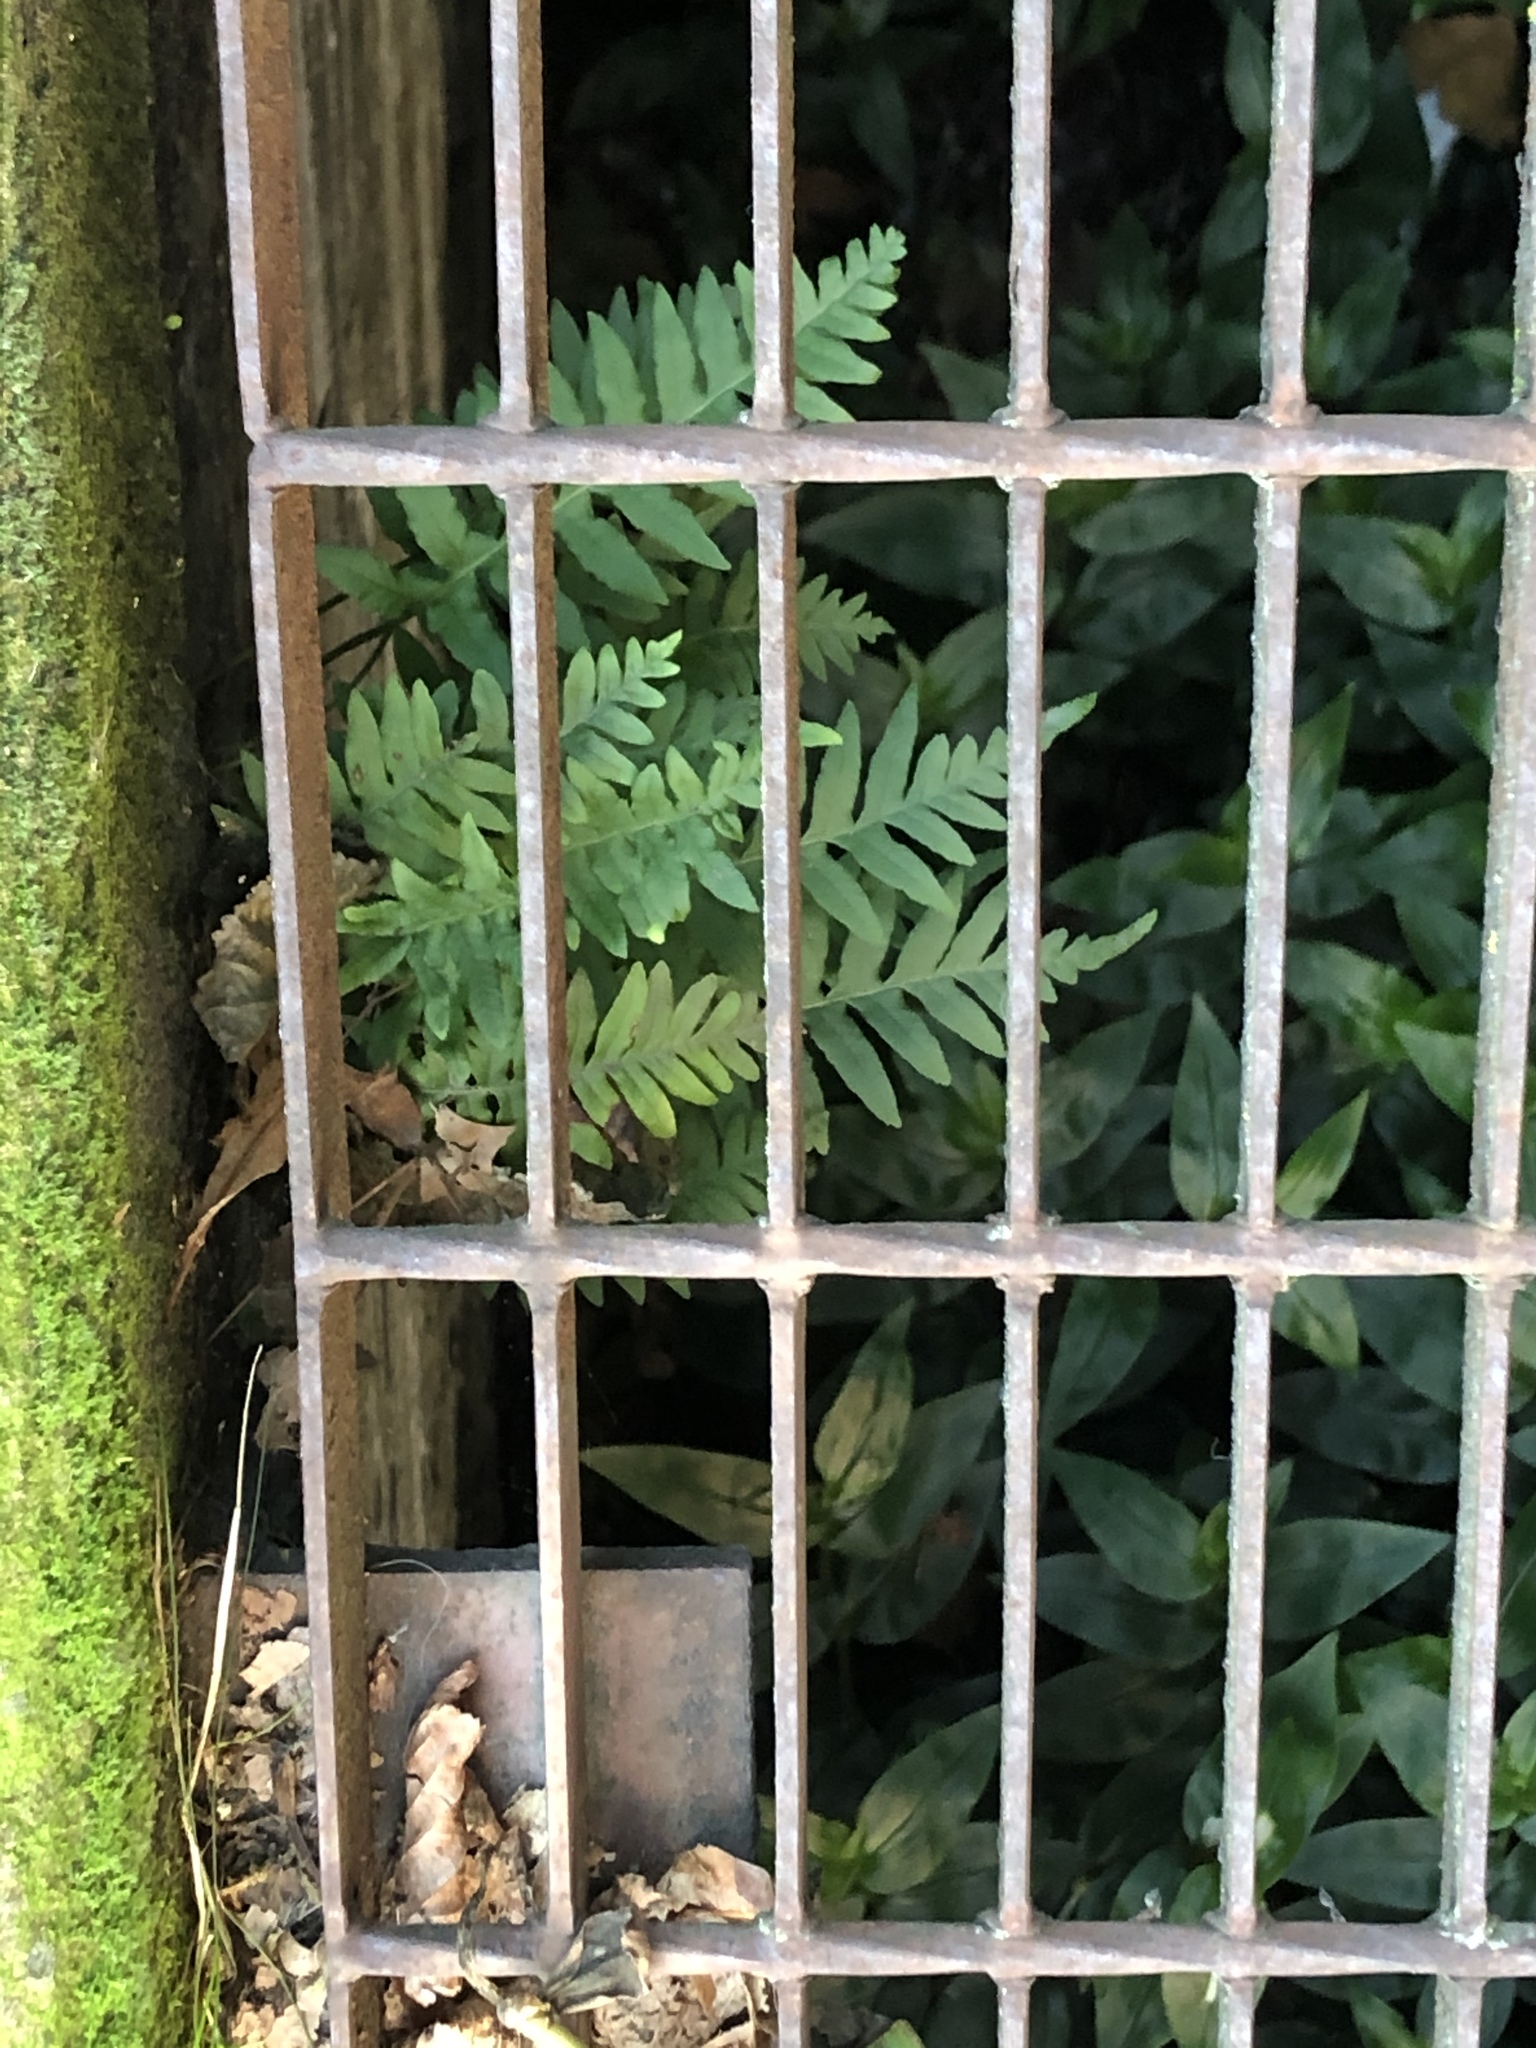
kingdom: Plantae
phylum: Tracheophyta
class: Polypodiopsida
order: Polypodiales
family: Polypodiaceae
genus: Polypodium
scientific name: Polypodium glycyrrhiza
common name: Licorice fern
